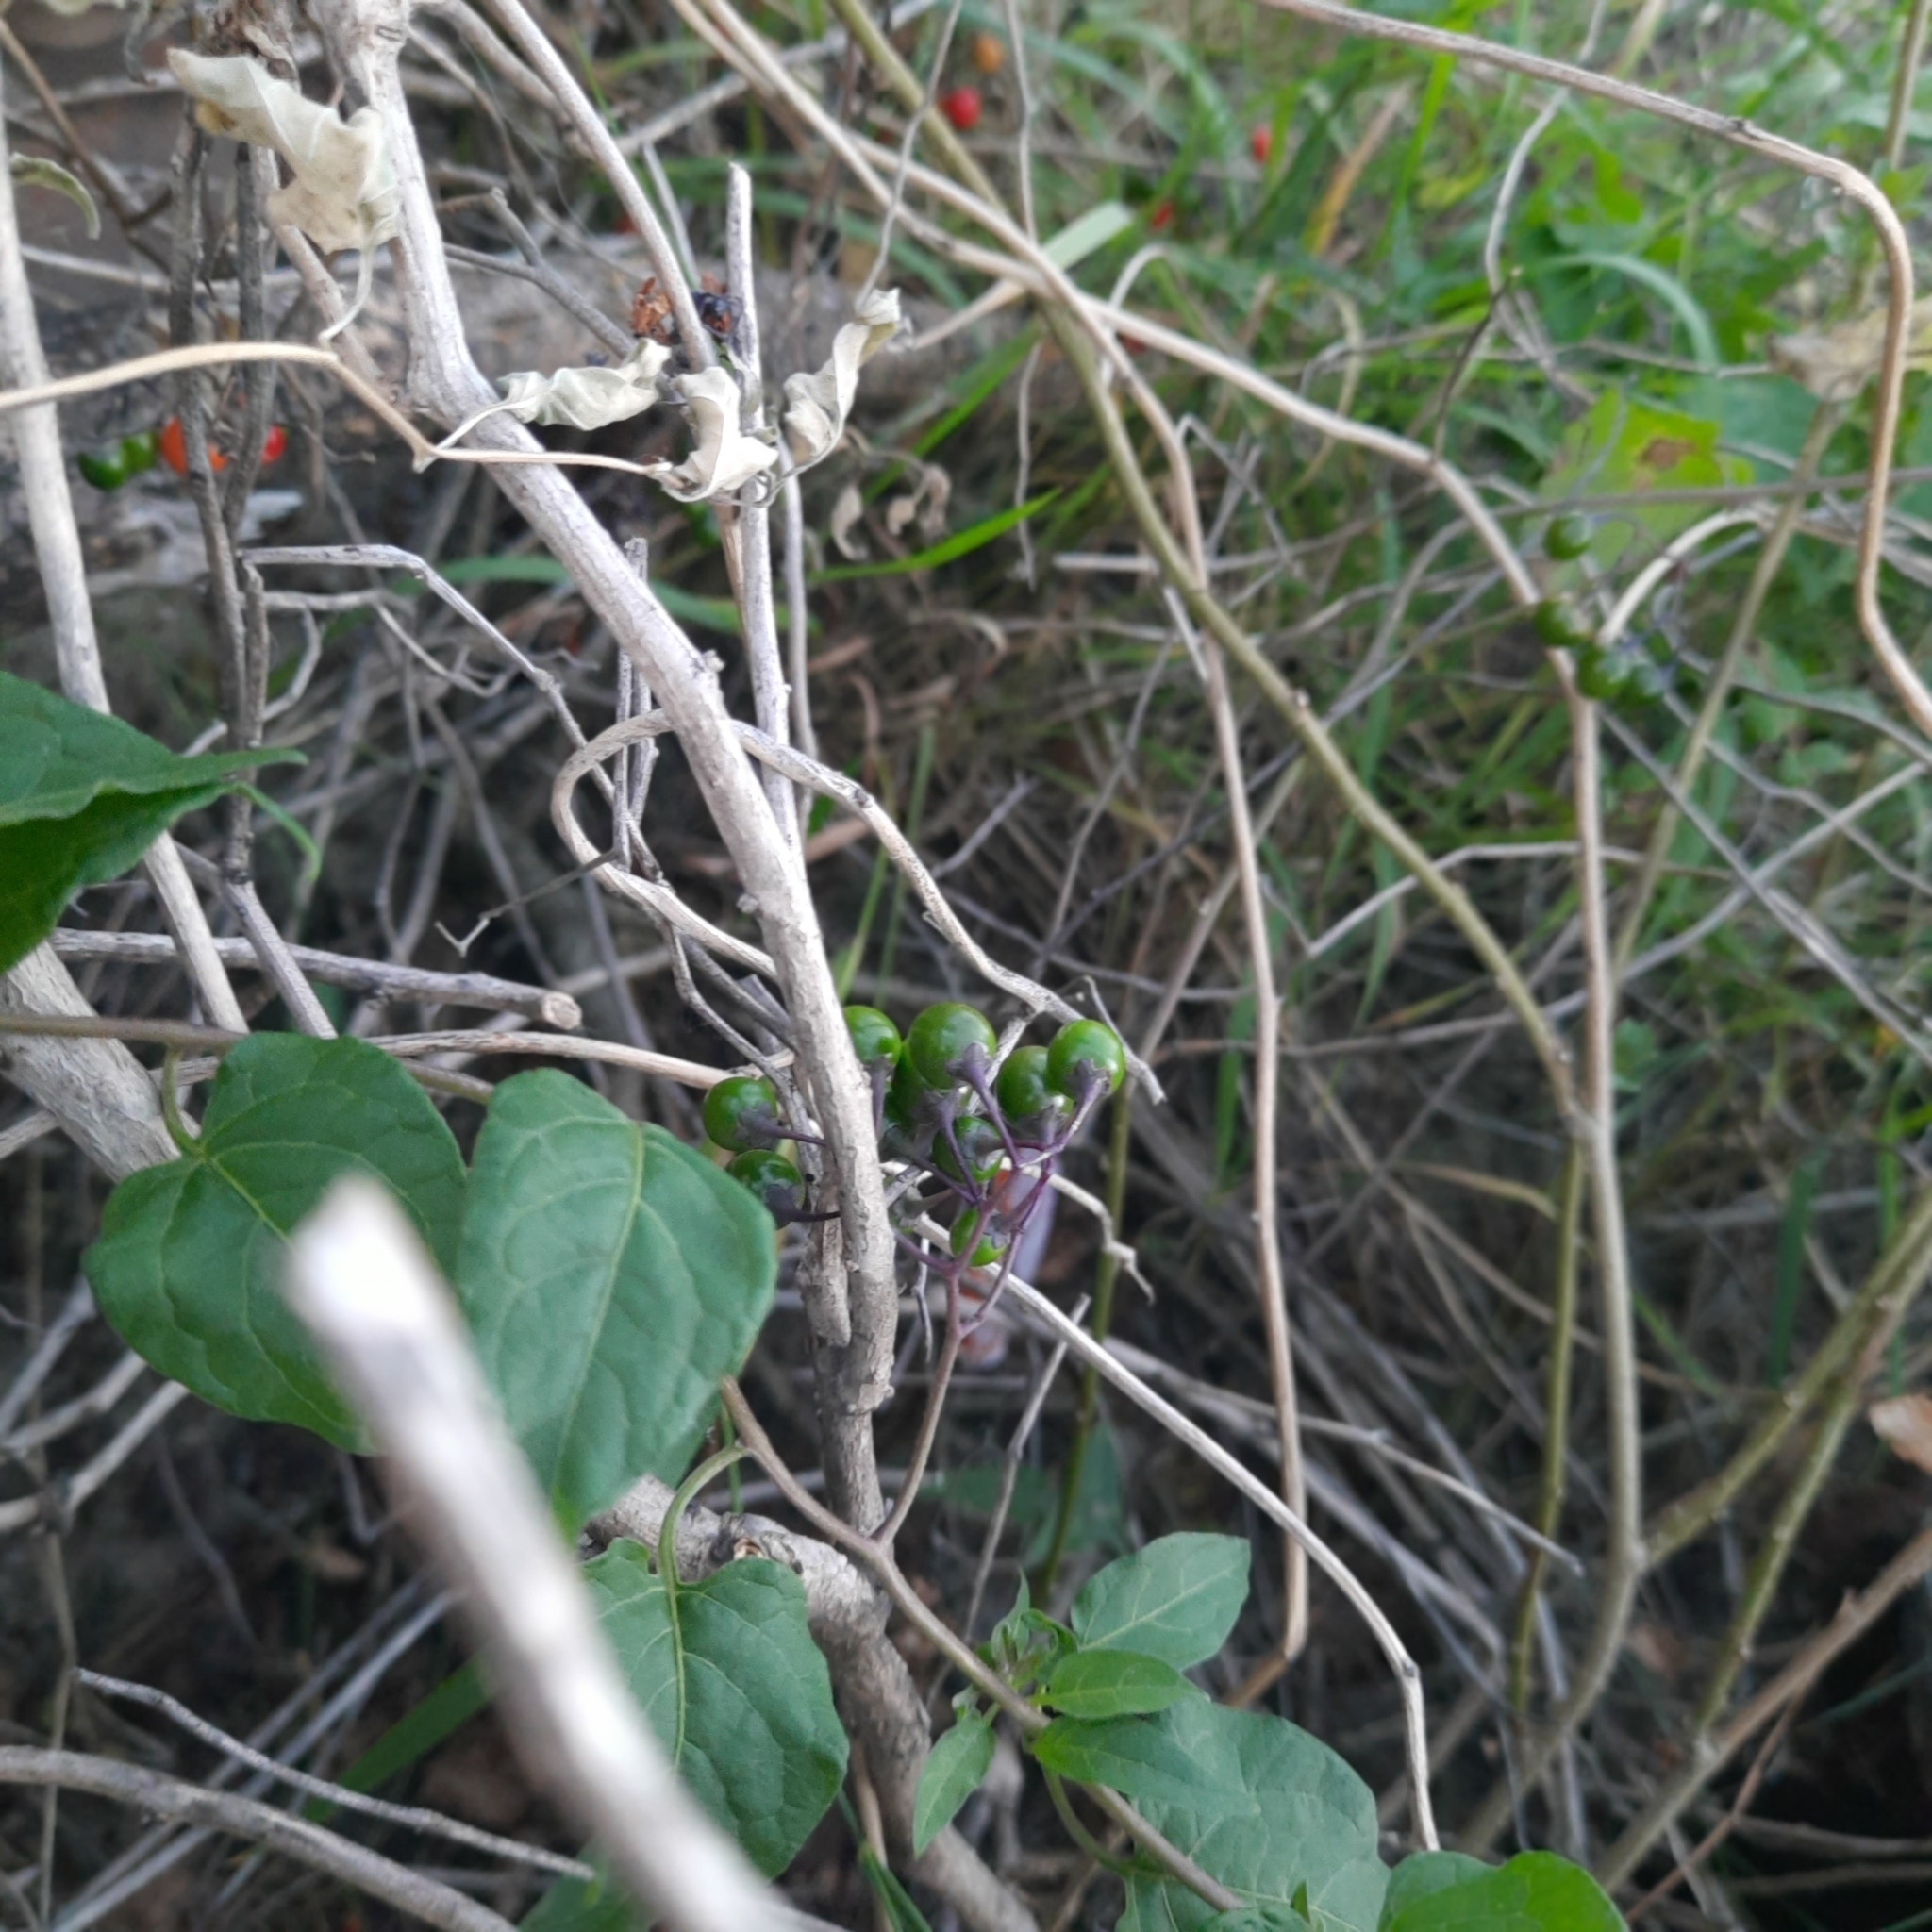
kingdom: Plantae
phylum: Tracheophyta
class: Magnoliopsida
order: Solanales
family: Solanaceae
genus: Solanum
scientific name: Solanum dulcamara
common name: Climbing nightshade
